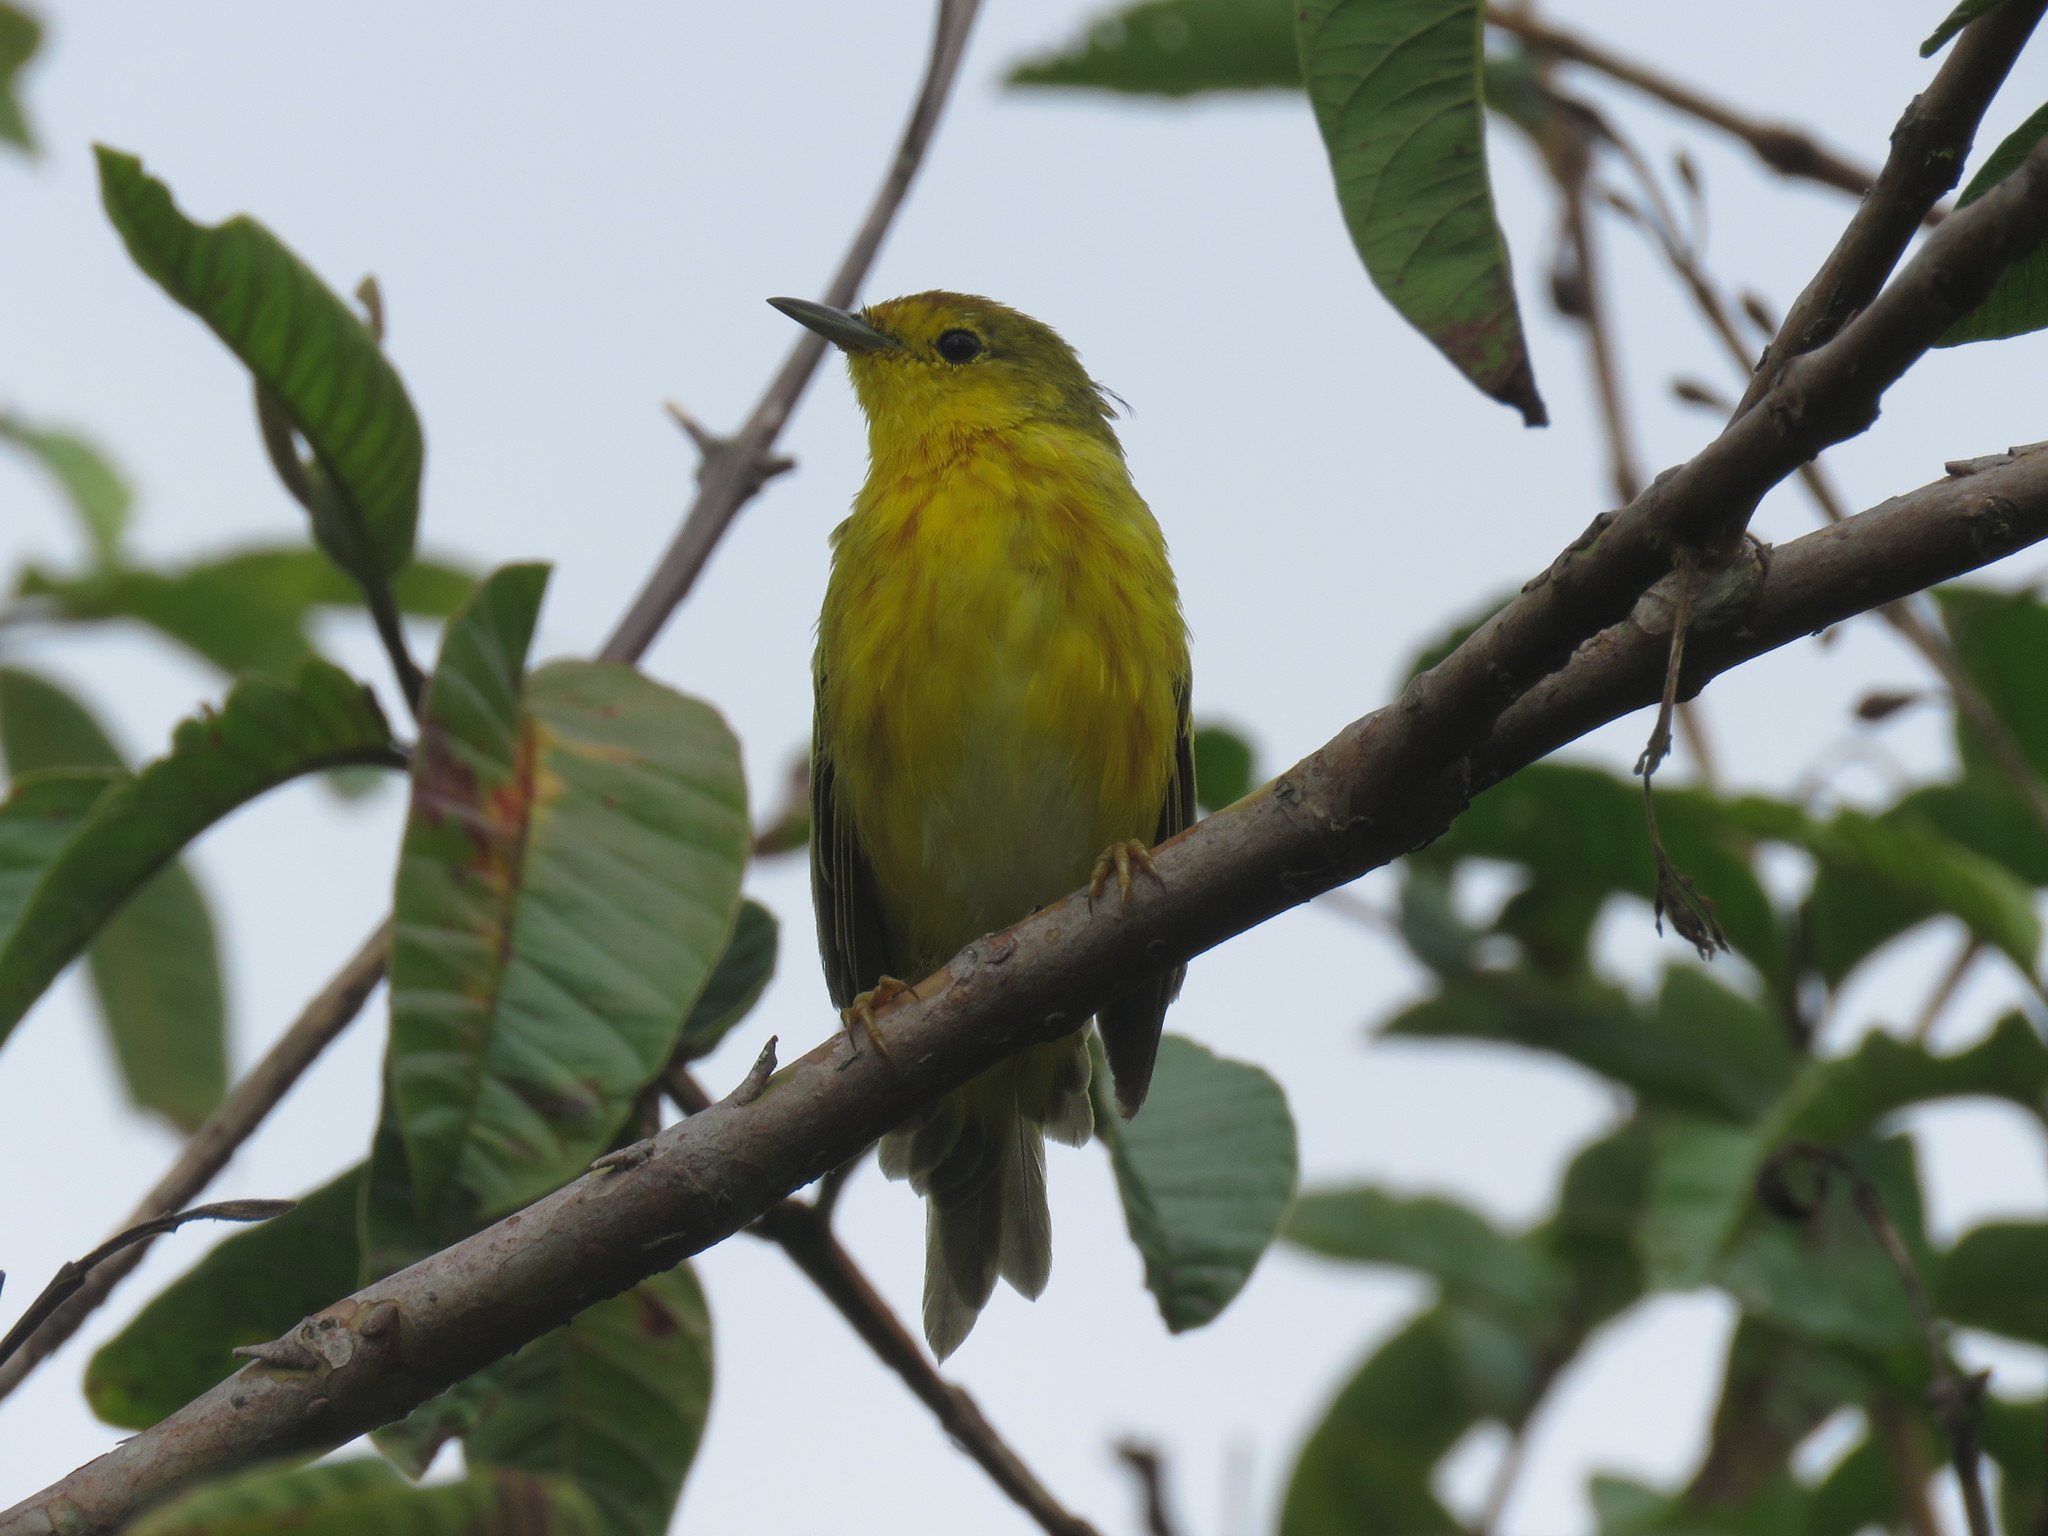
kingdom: Animalia
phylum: Chordata
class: Aves
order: Passeriformes
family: Parulidae
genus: Setophaga
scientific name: Setophaga petechia
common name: Yellow warbler
